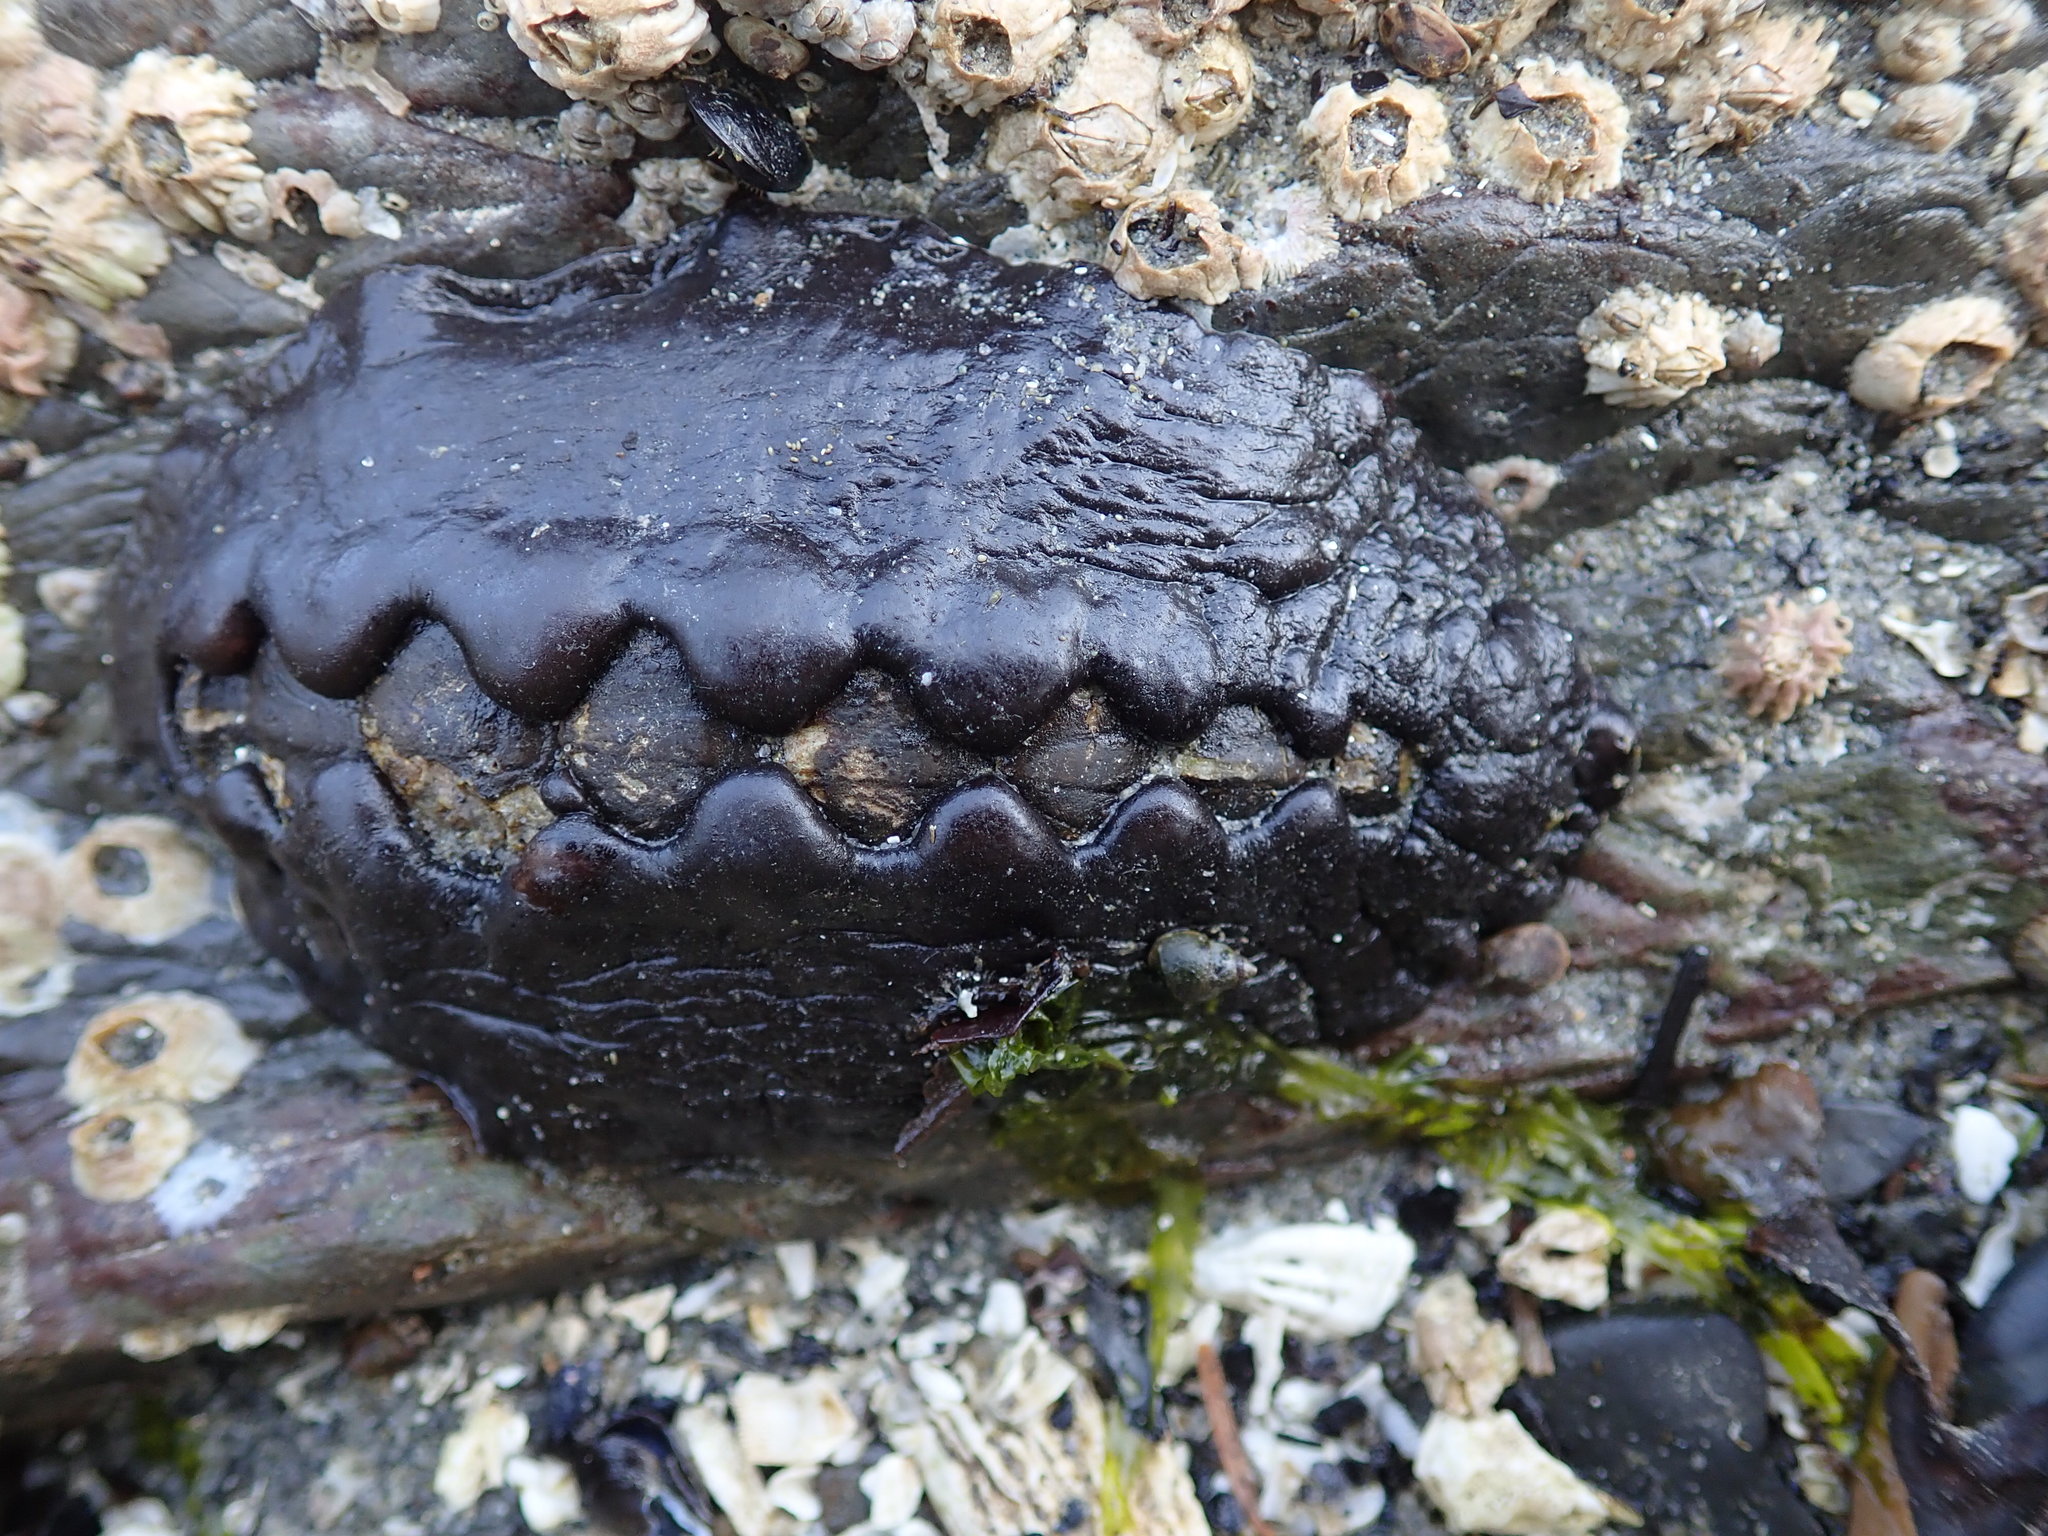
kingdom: Animalia
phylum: Mollusca
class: Polyplacophora
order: Chitonida
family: Mopaliidae
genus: Katharina
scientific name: Katharina tunicata
